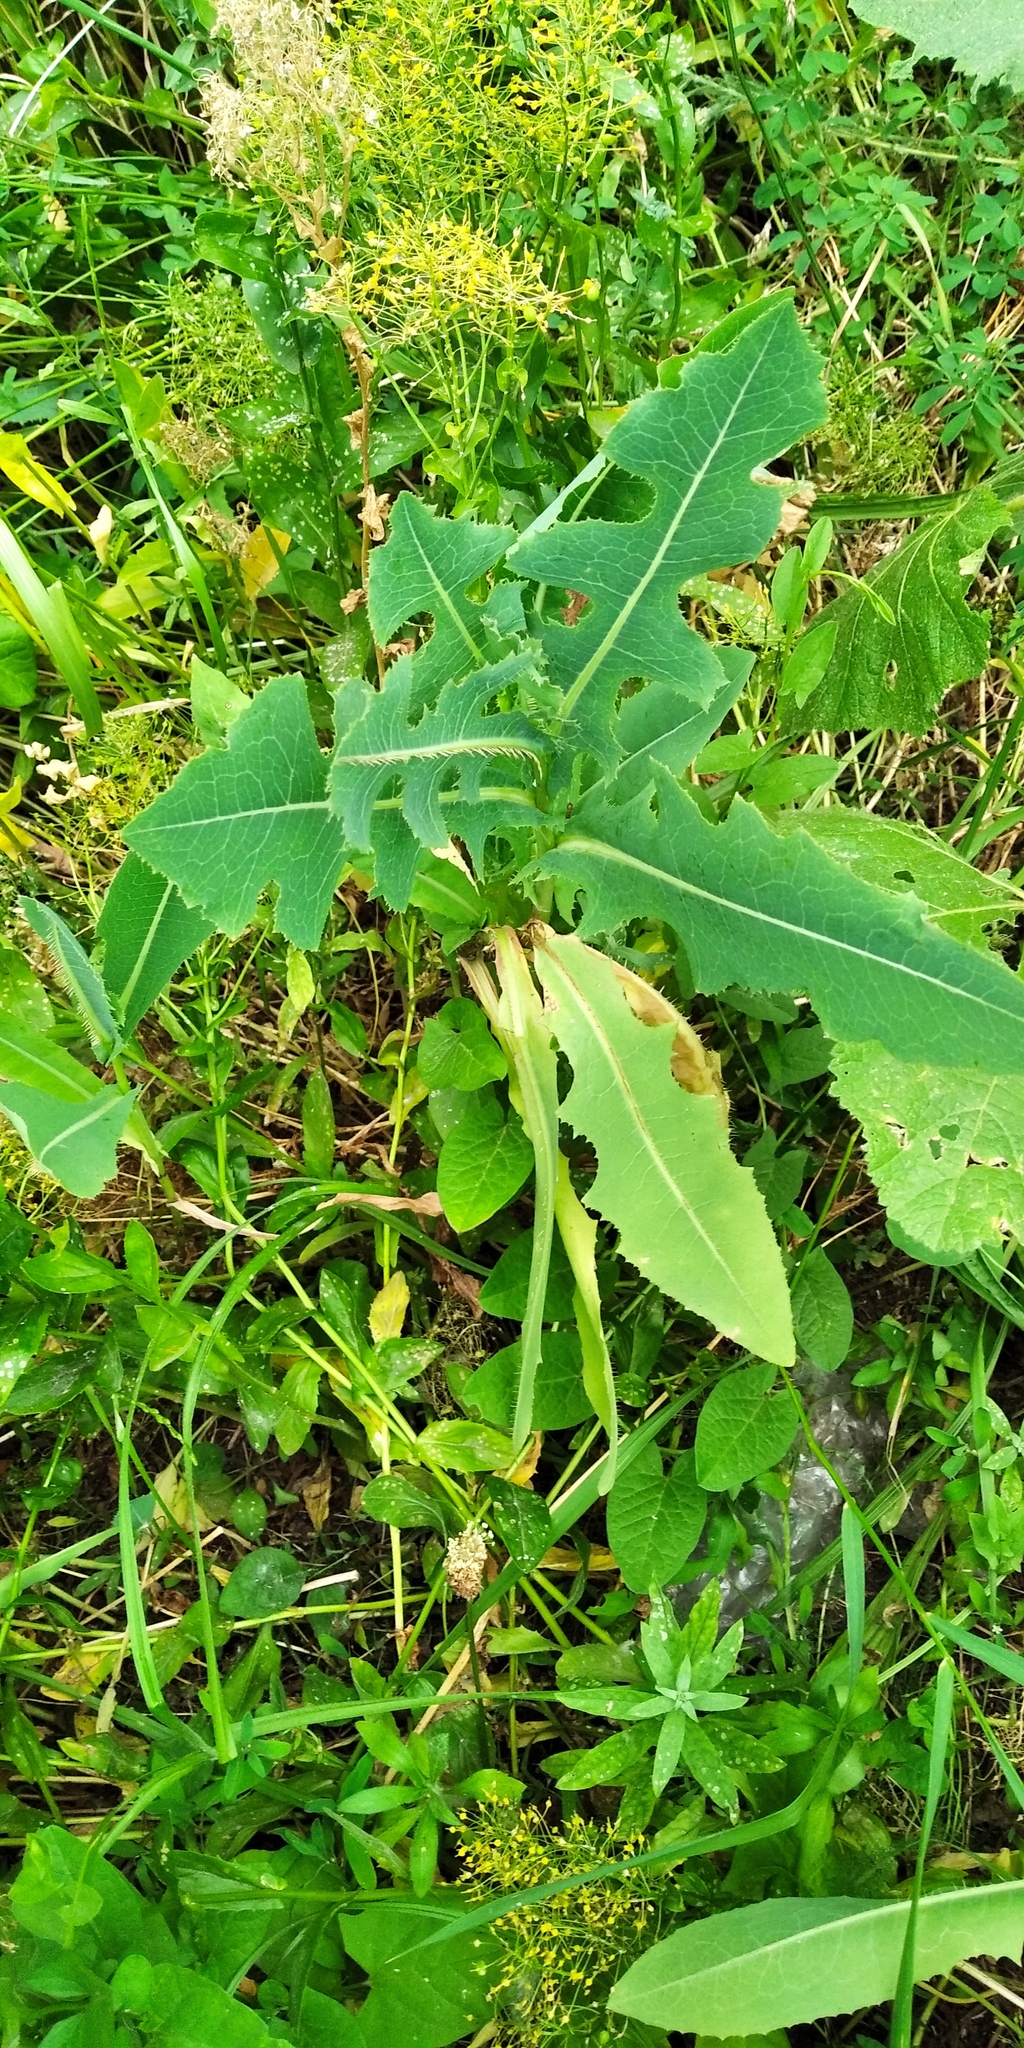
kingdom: Plantae
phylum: Tracheophyta
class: Magnoliopsida
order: Asterales
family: Asteraceae
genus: Lactuca
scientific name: Lactuca serriola
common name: Prickly lettuce
